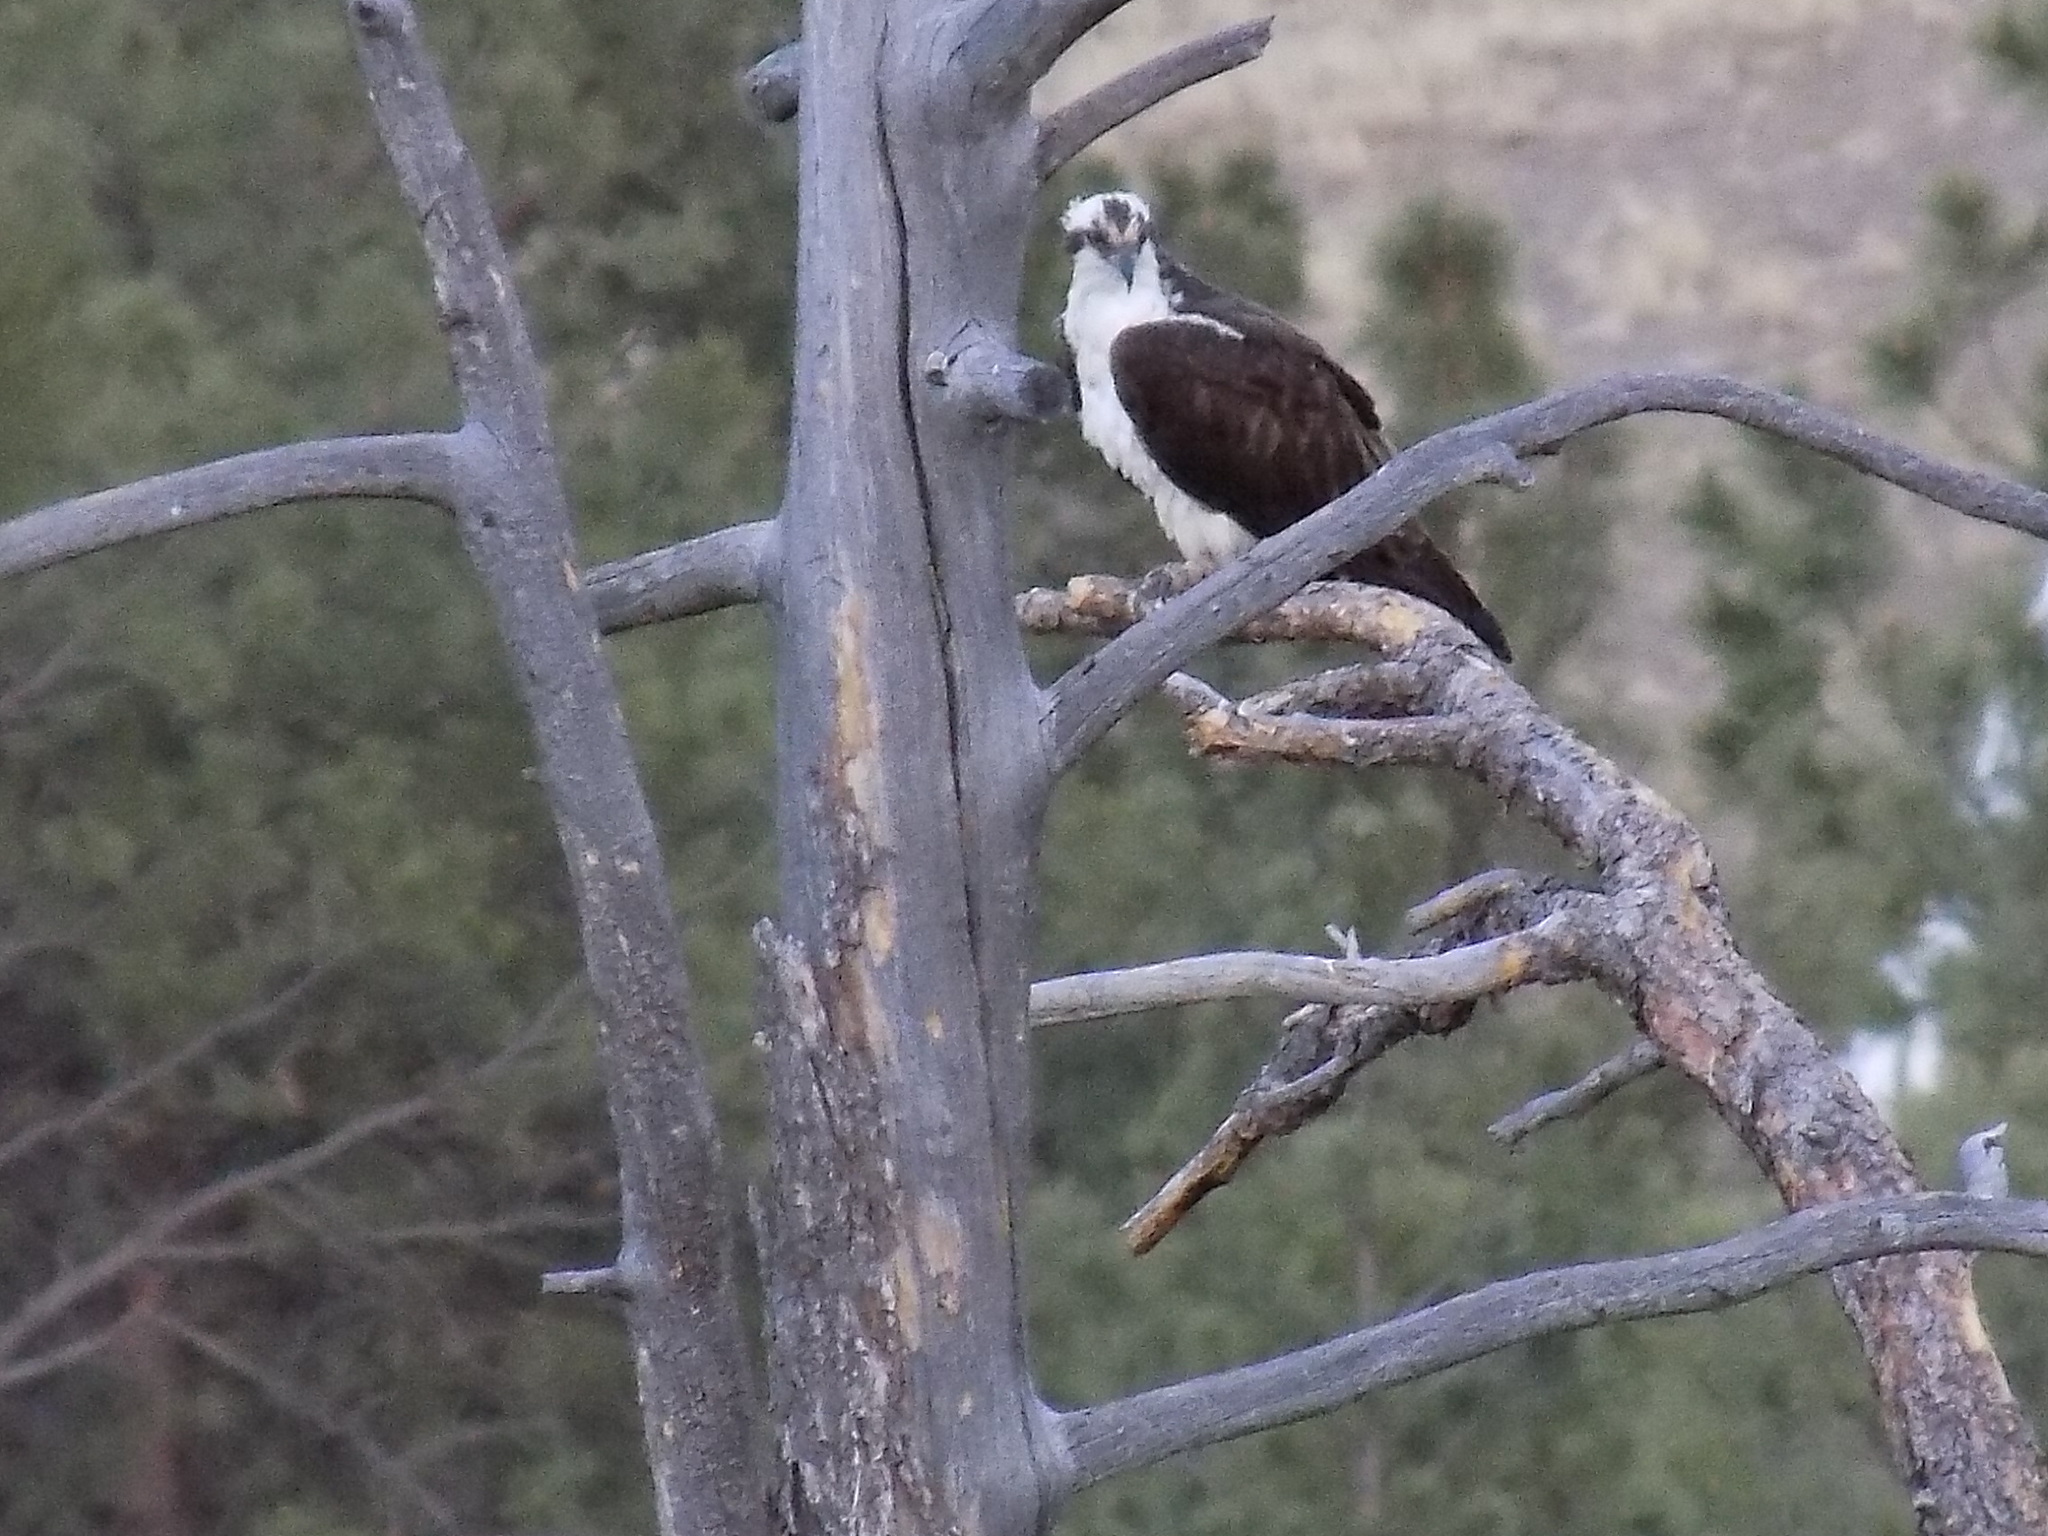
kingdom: Animalia
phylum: Chordata
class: Aves
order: Accipitriformes
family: Pandionidae
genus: Pandion
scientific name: Pandion haliaetus
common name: Osprey
